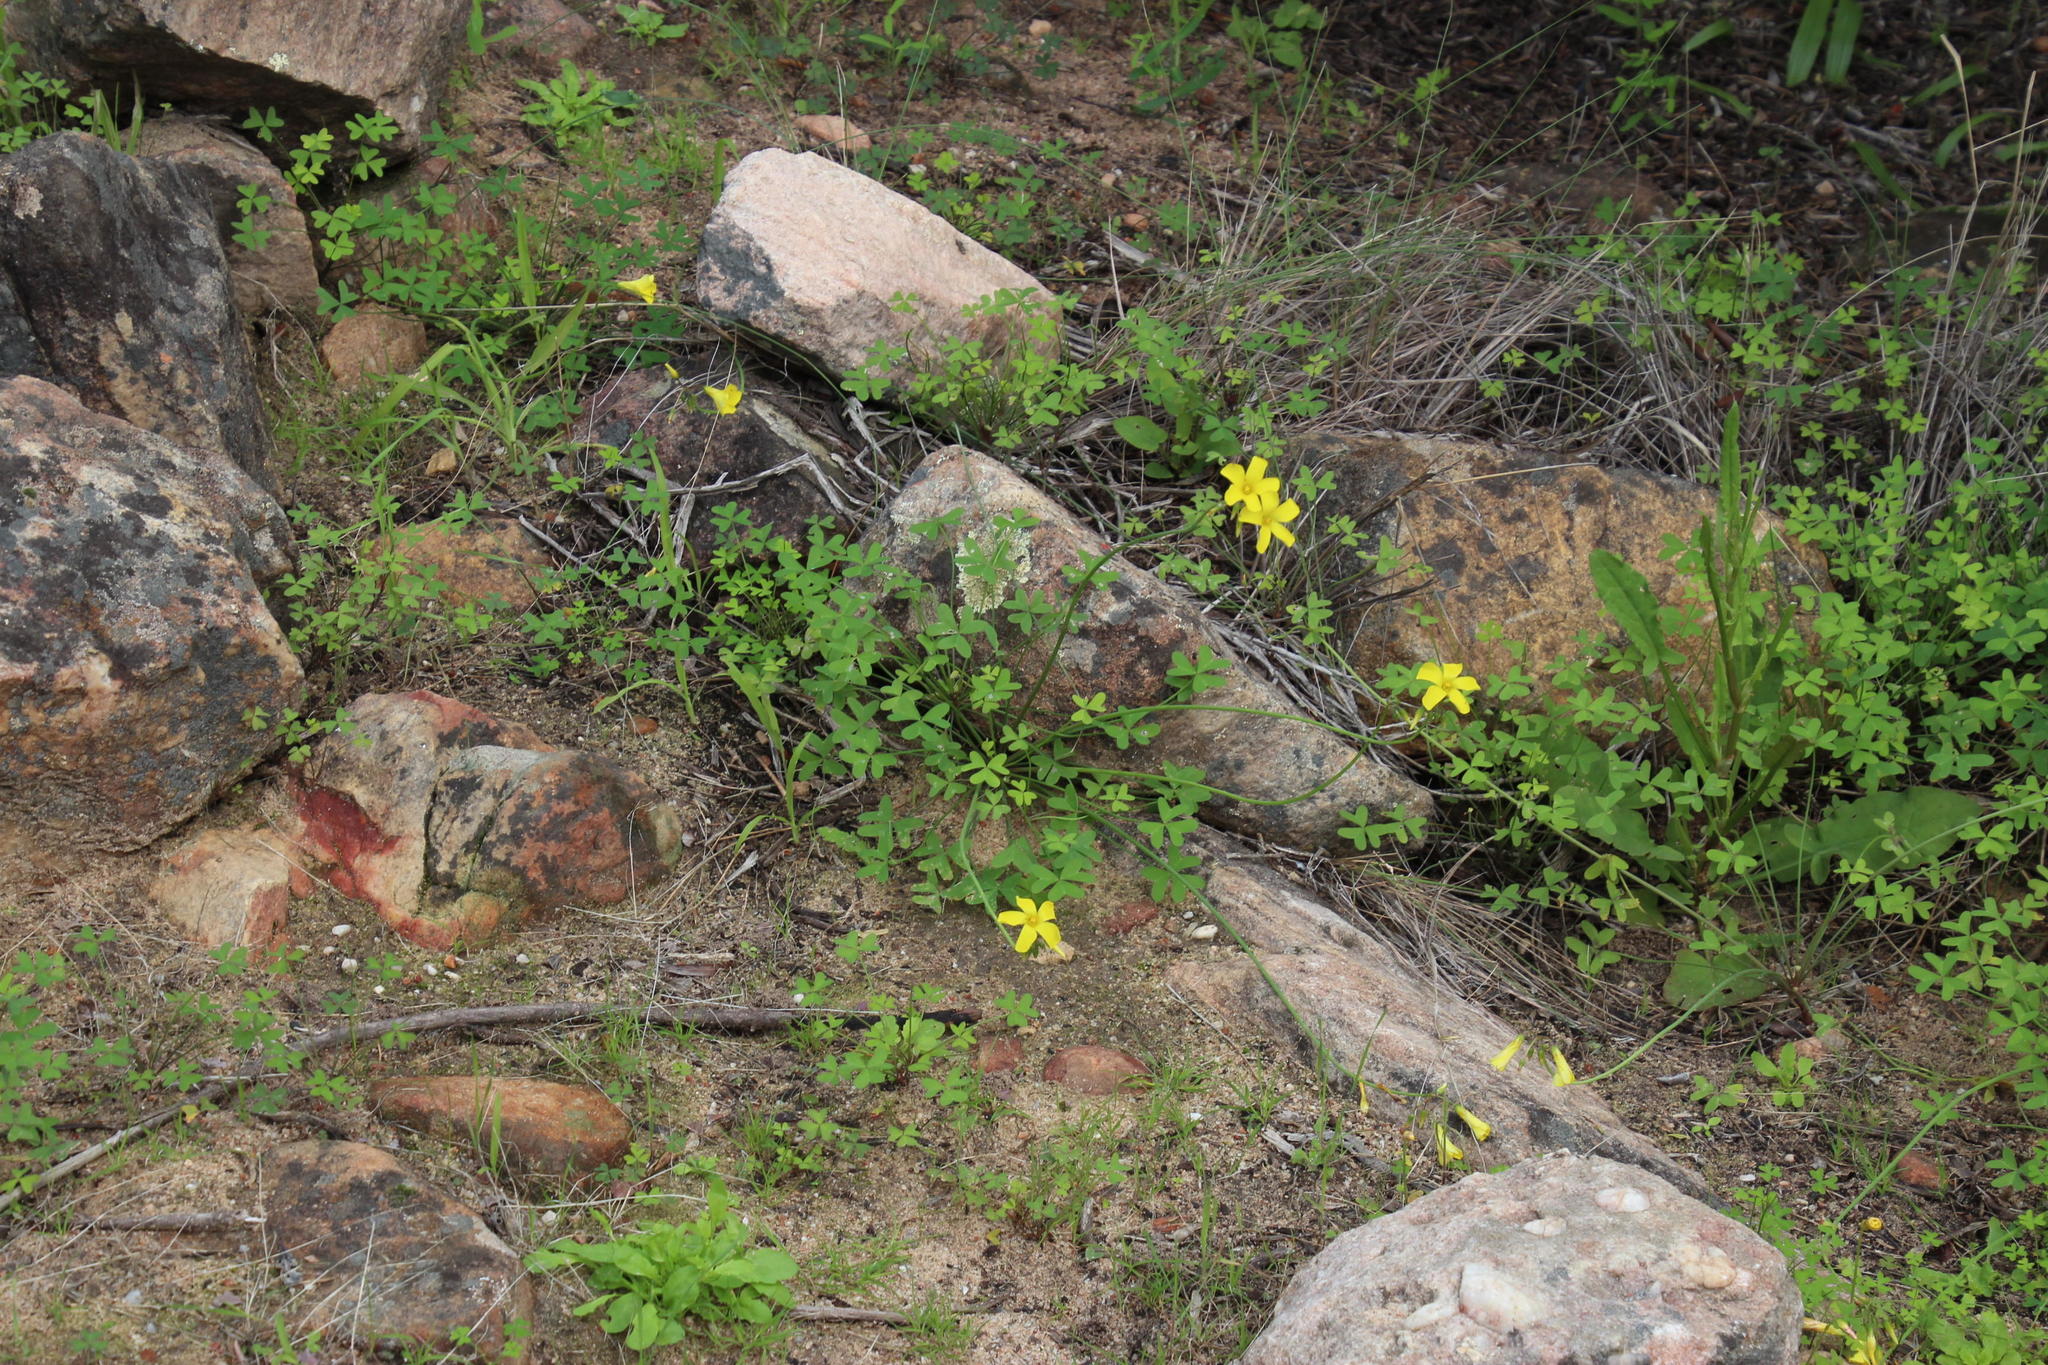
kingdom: Plantae
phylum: Tracheophyta
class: Magnoliopsida
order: Oxalidales
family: Oxalidaceae
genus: Oxalis
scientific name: Oxalis pes-caprae
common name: Bermuda-buttercup
